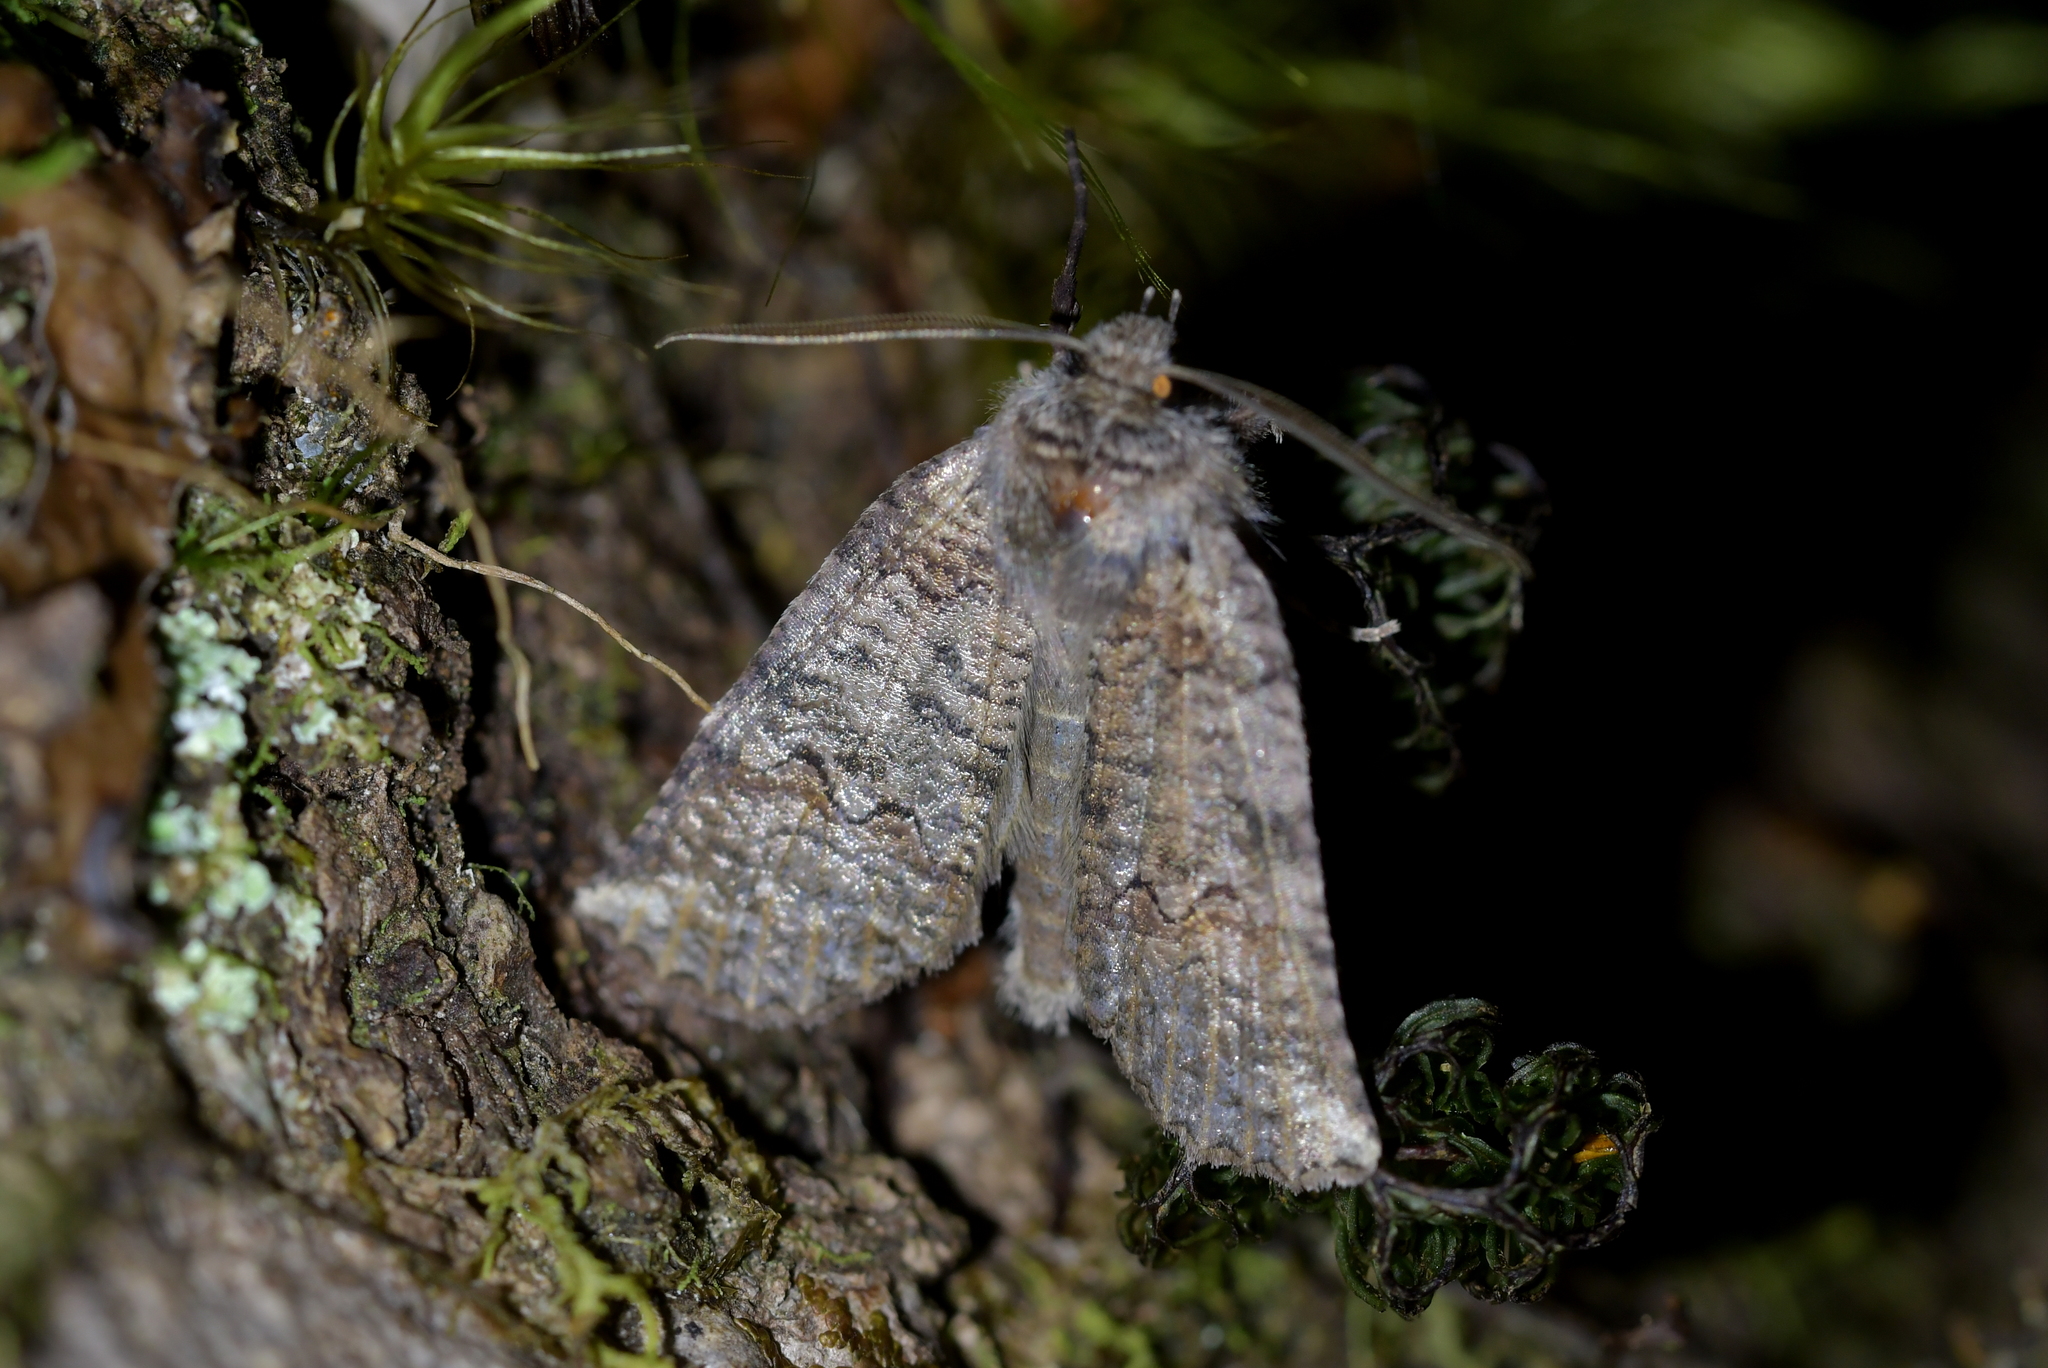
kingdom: Animalia
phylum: Arthropoda
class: Insecta
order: Lepidoptera
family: Geometridae
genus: Declana
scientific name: Declana
